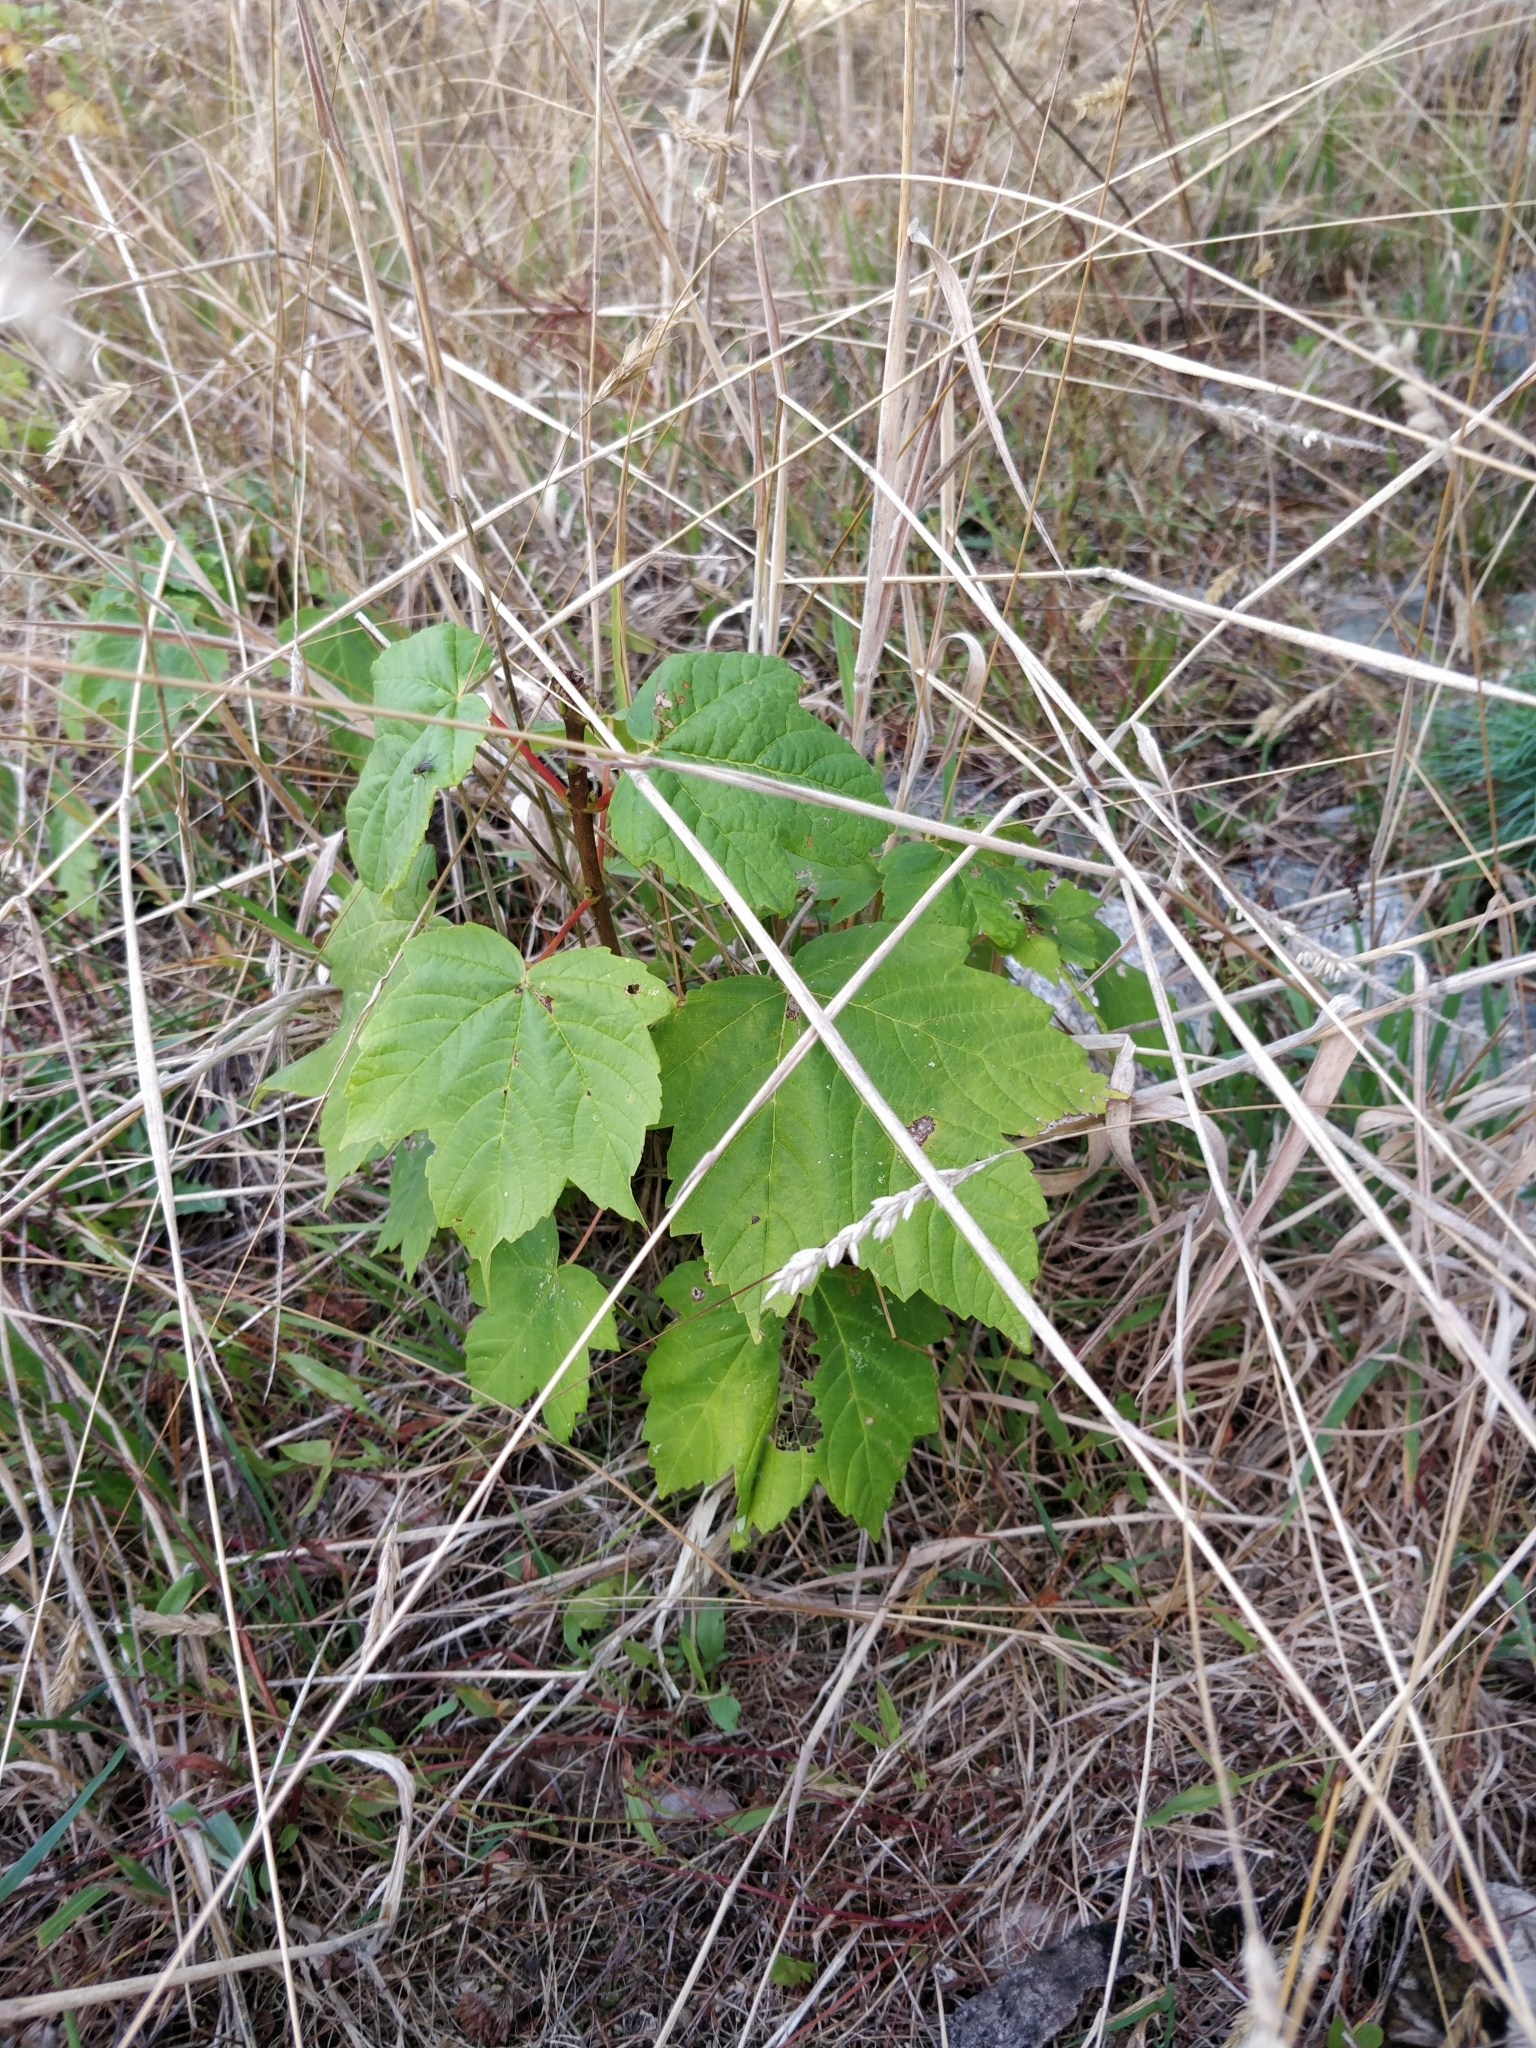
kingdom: Plantae
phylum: Tracheophyta
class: Magnoliopsida
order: Vitales
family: Vitaceae
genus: Vitis
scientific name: Vitis vinifera
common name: Grape-vine
